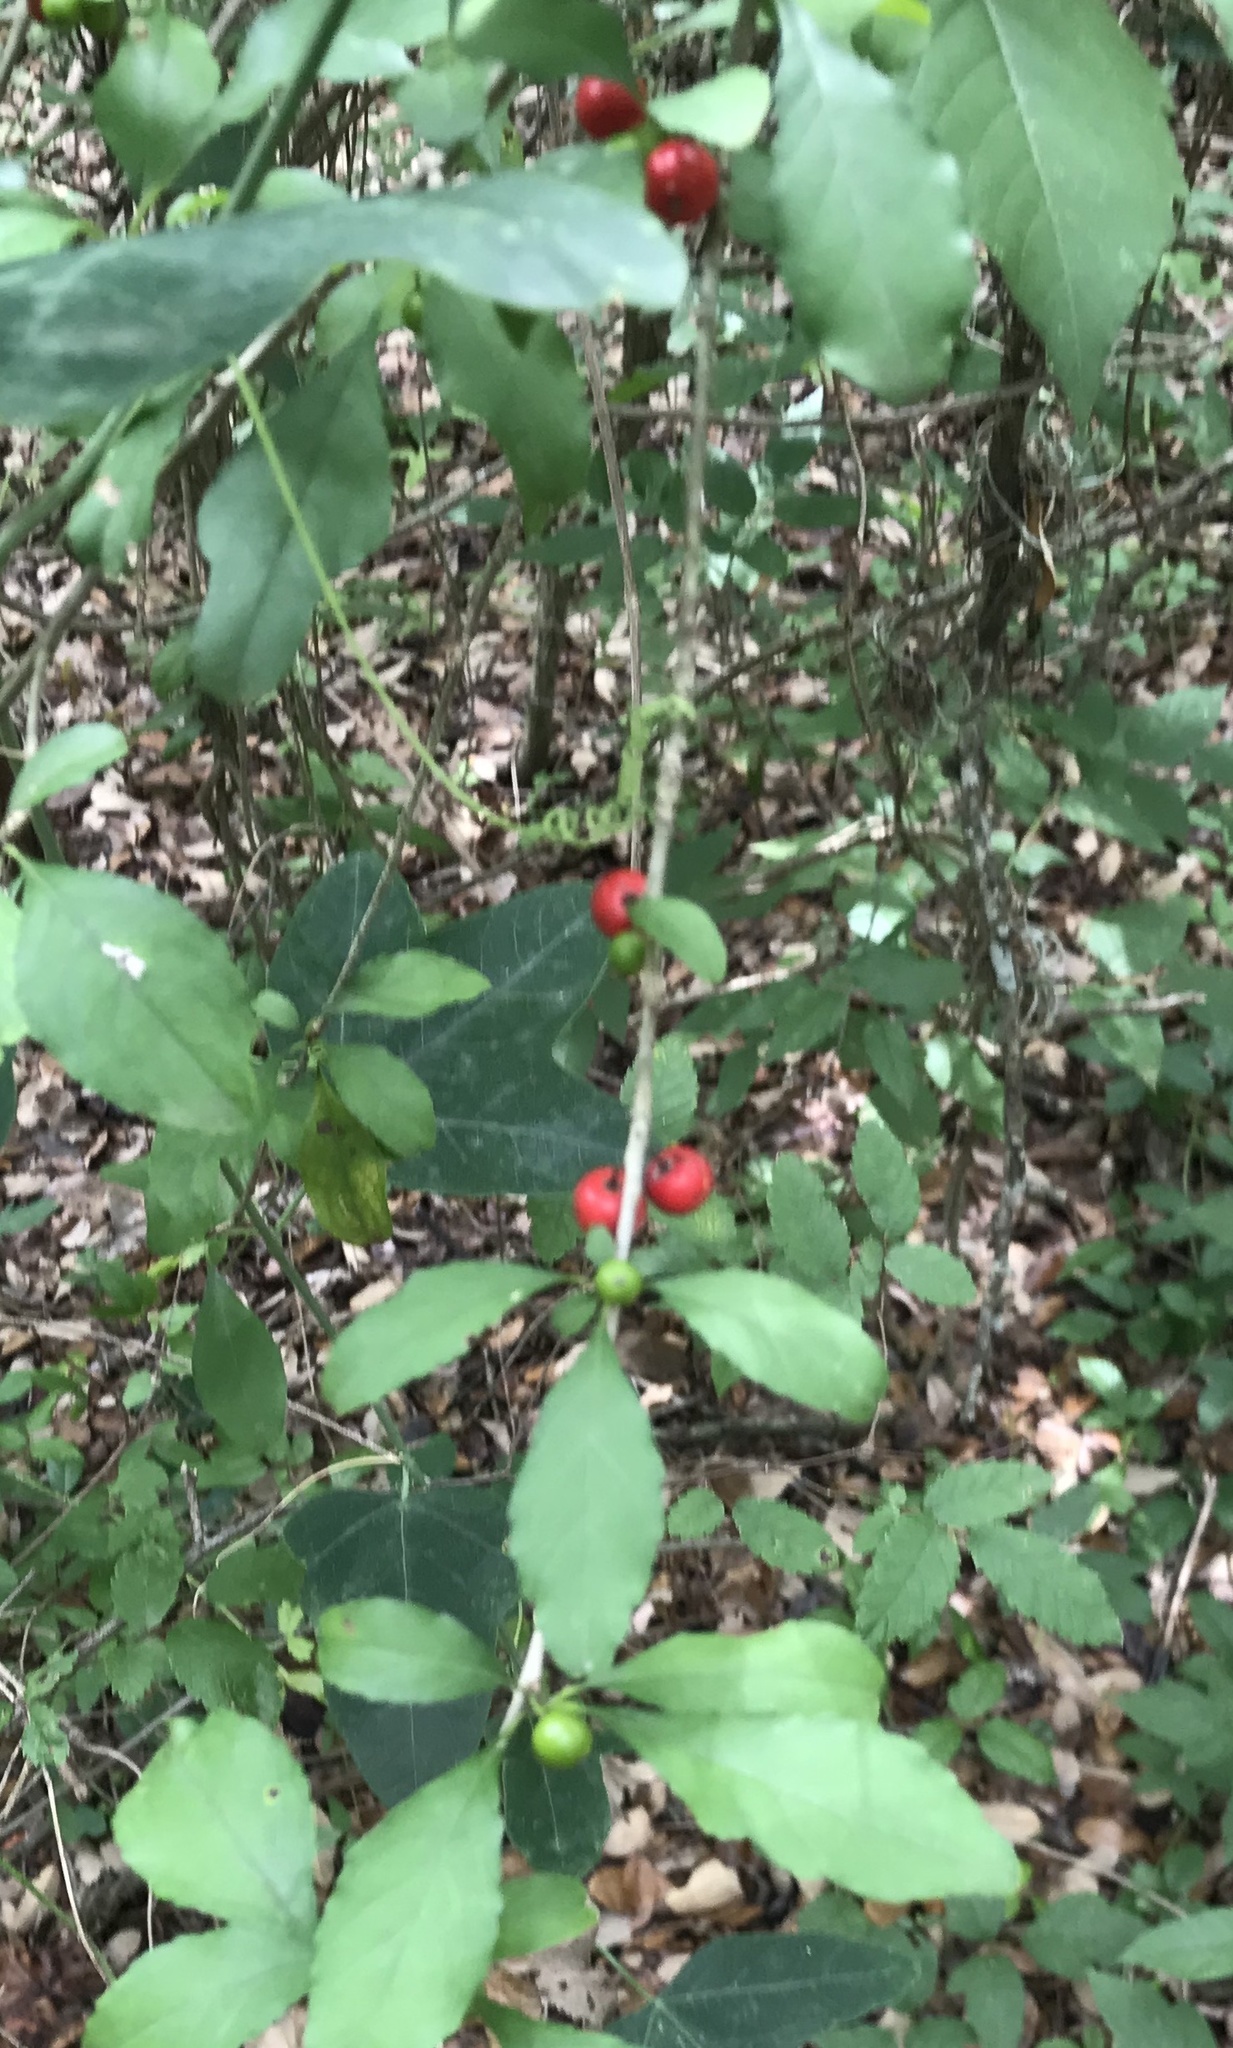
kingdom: Plantae
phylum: Tracheophyta
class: Magnoliopsida
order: Aquifoliales
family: Aquifoliaceae
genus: Ilex
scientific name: Ilex decidua
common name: Possum-haw
